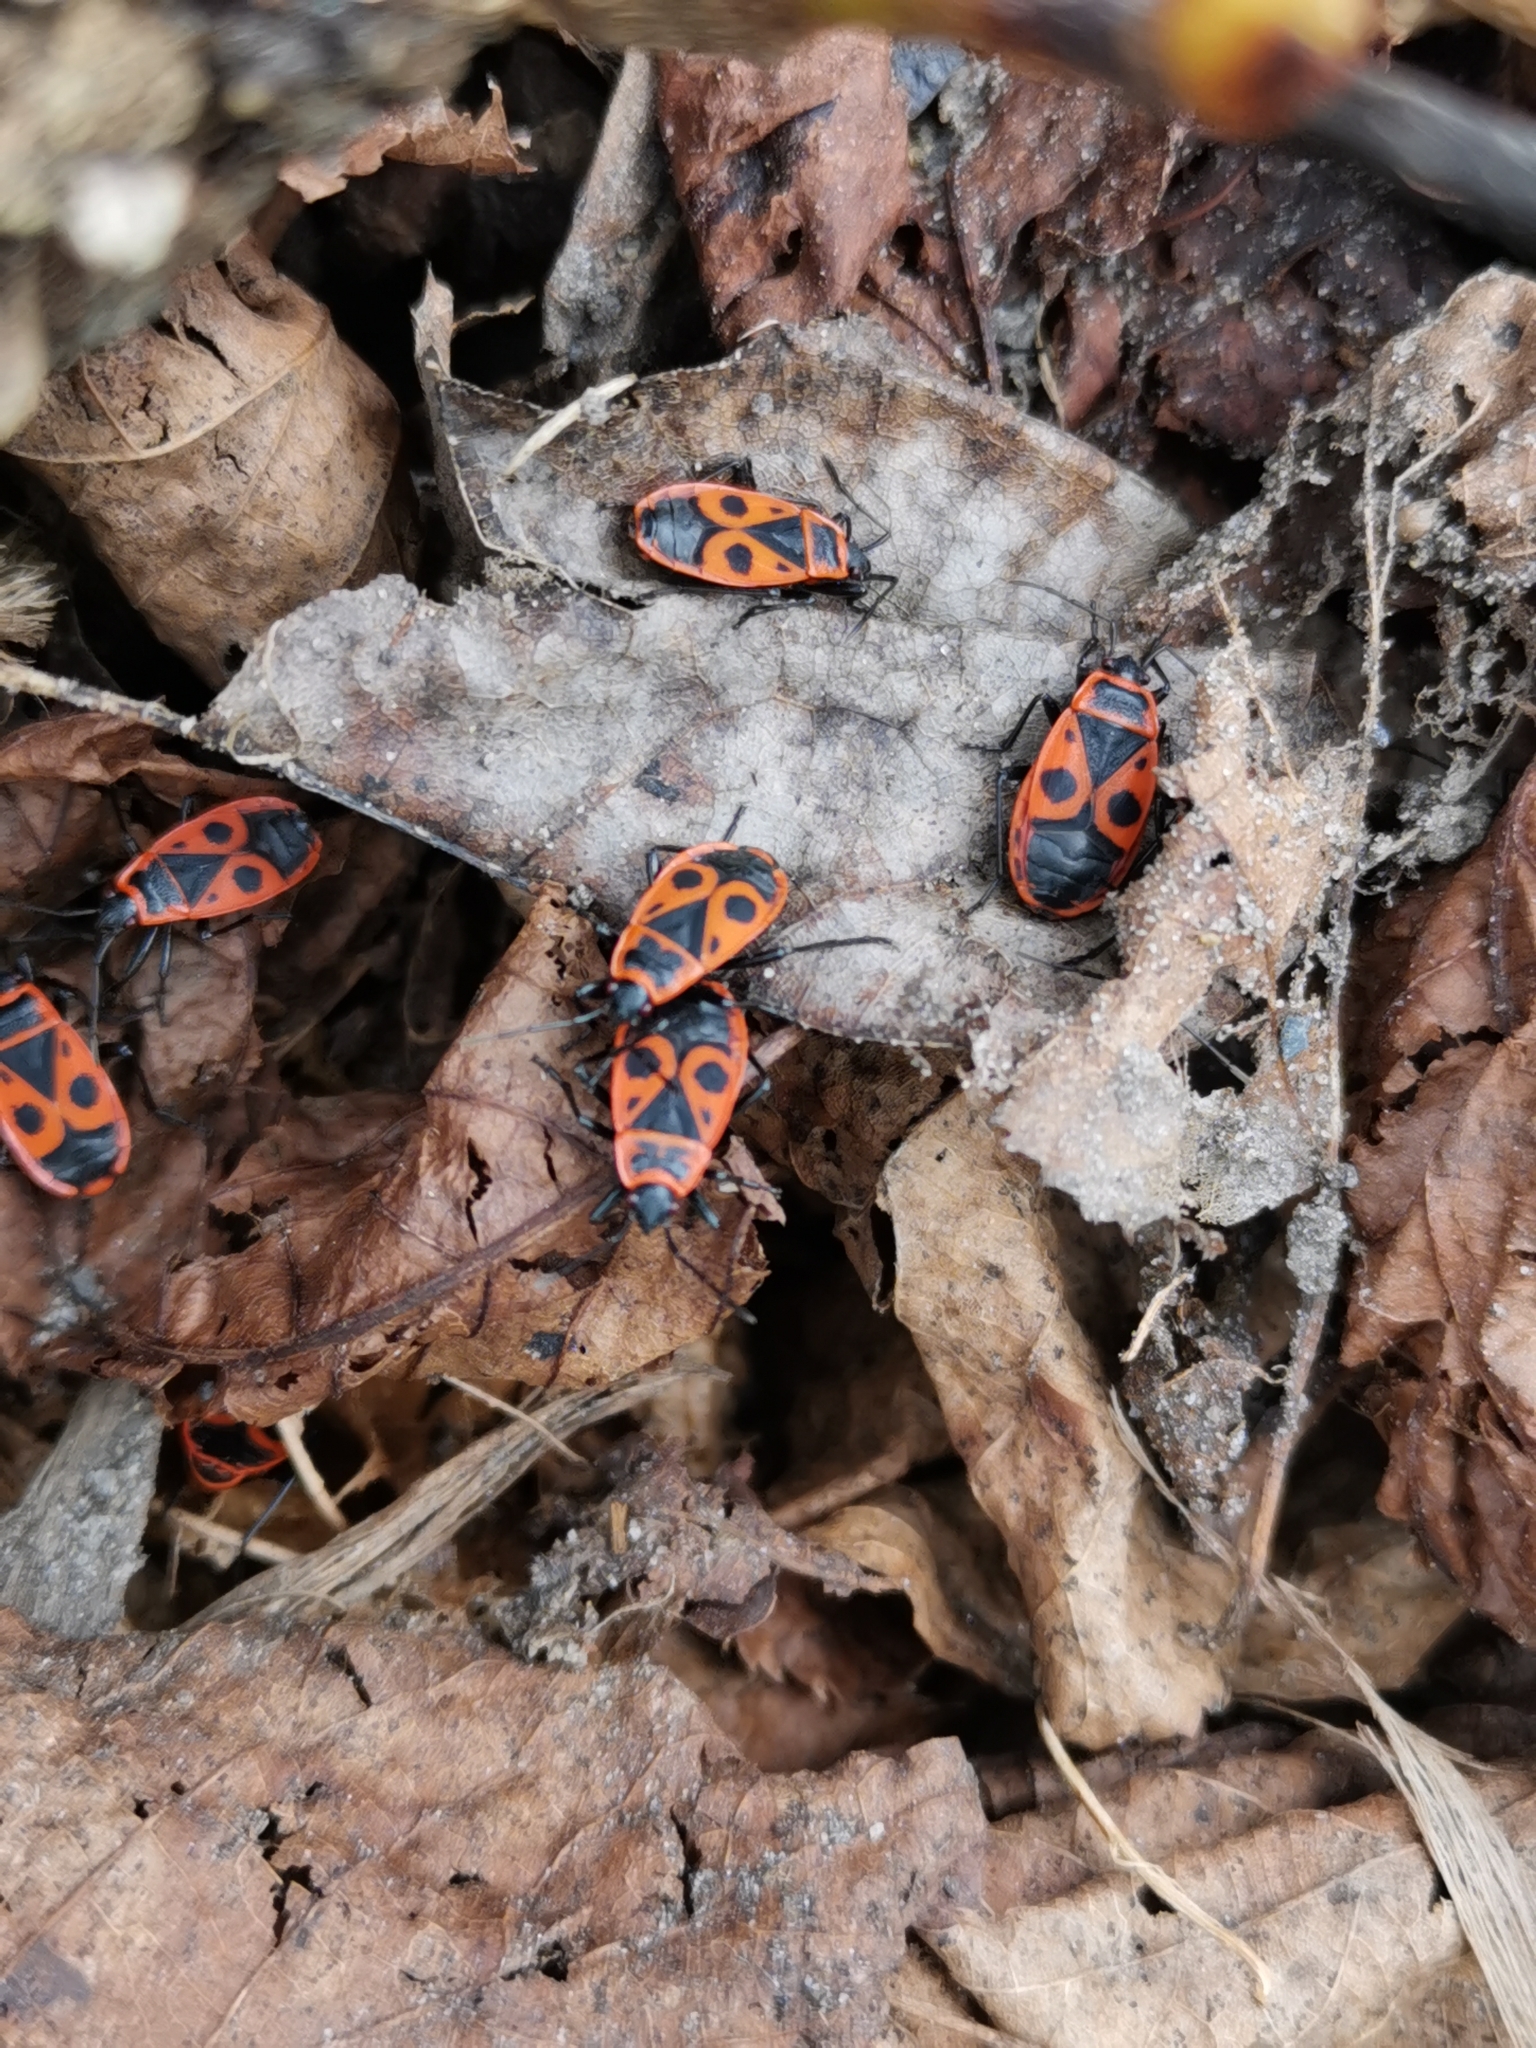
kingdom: Animalia
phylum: Arthropoda
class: Insecta
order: Hemiptera
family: Pyrrhocoridae
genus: Pyrrhocoris
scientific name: Pyrrhocoris apterus
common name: Firebug
